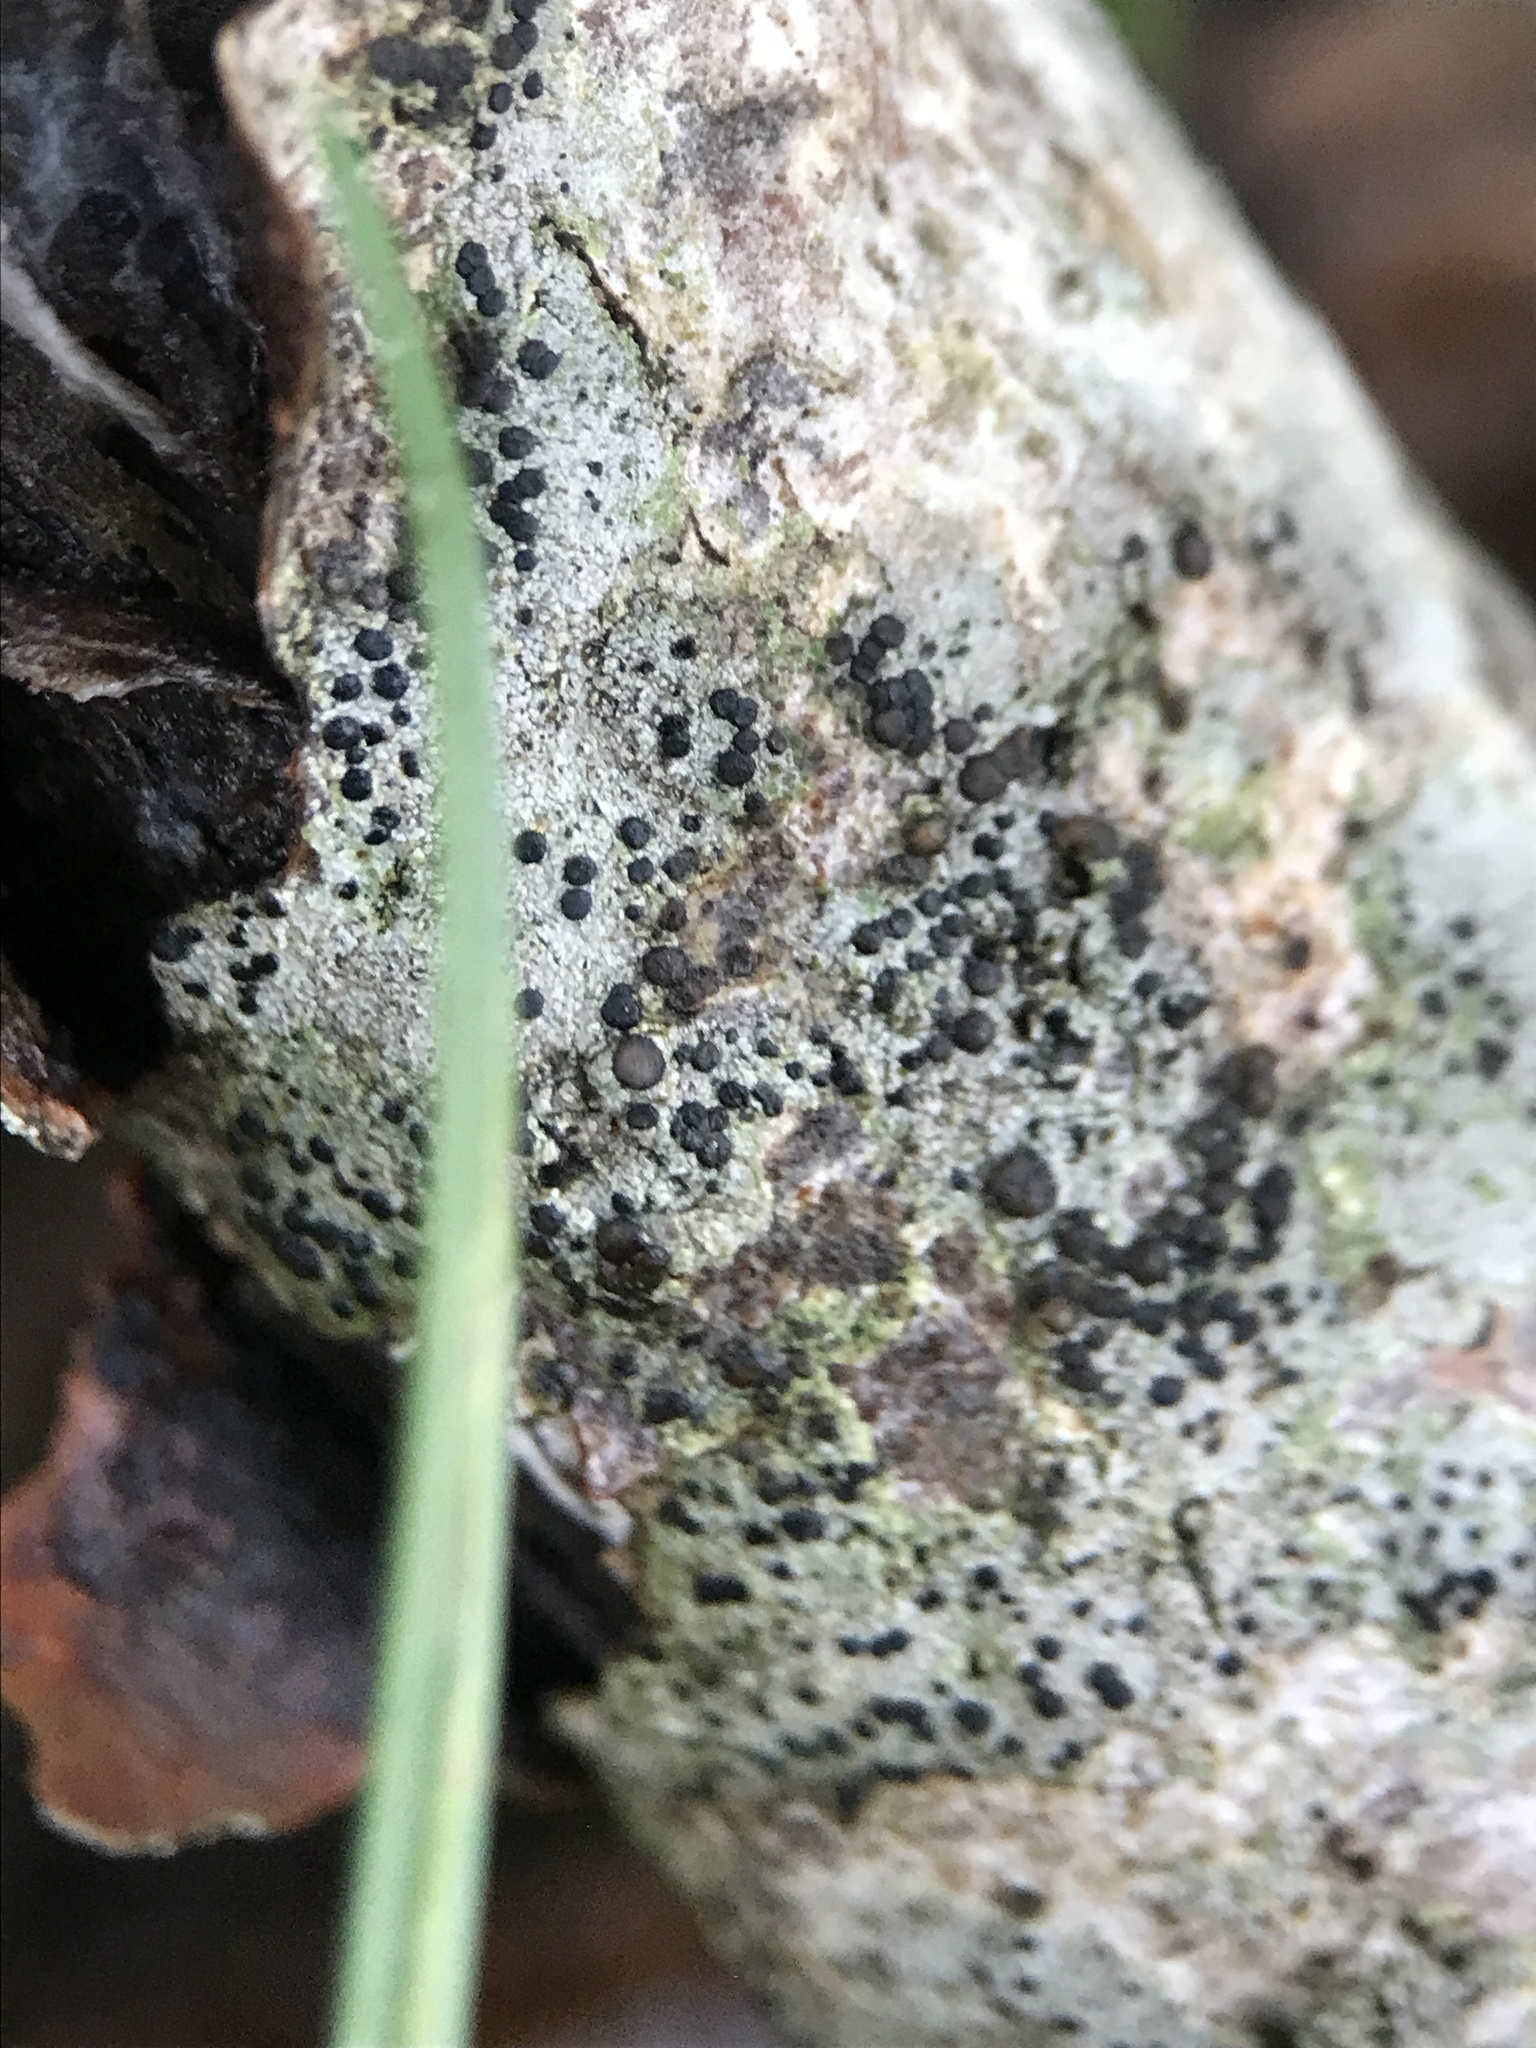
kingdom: Fungi
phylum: Ascomycota
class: Lecanoromycetes
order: Lecanorales
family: Lecanoraceae
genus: Lecidella
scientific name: Lecidella elaeochroma
